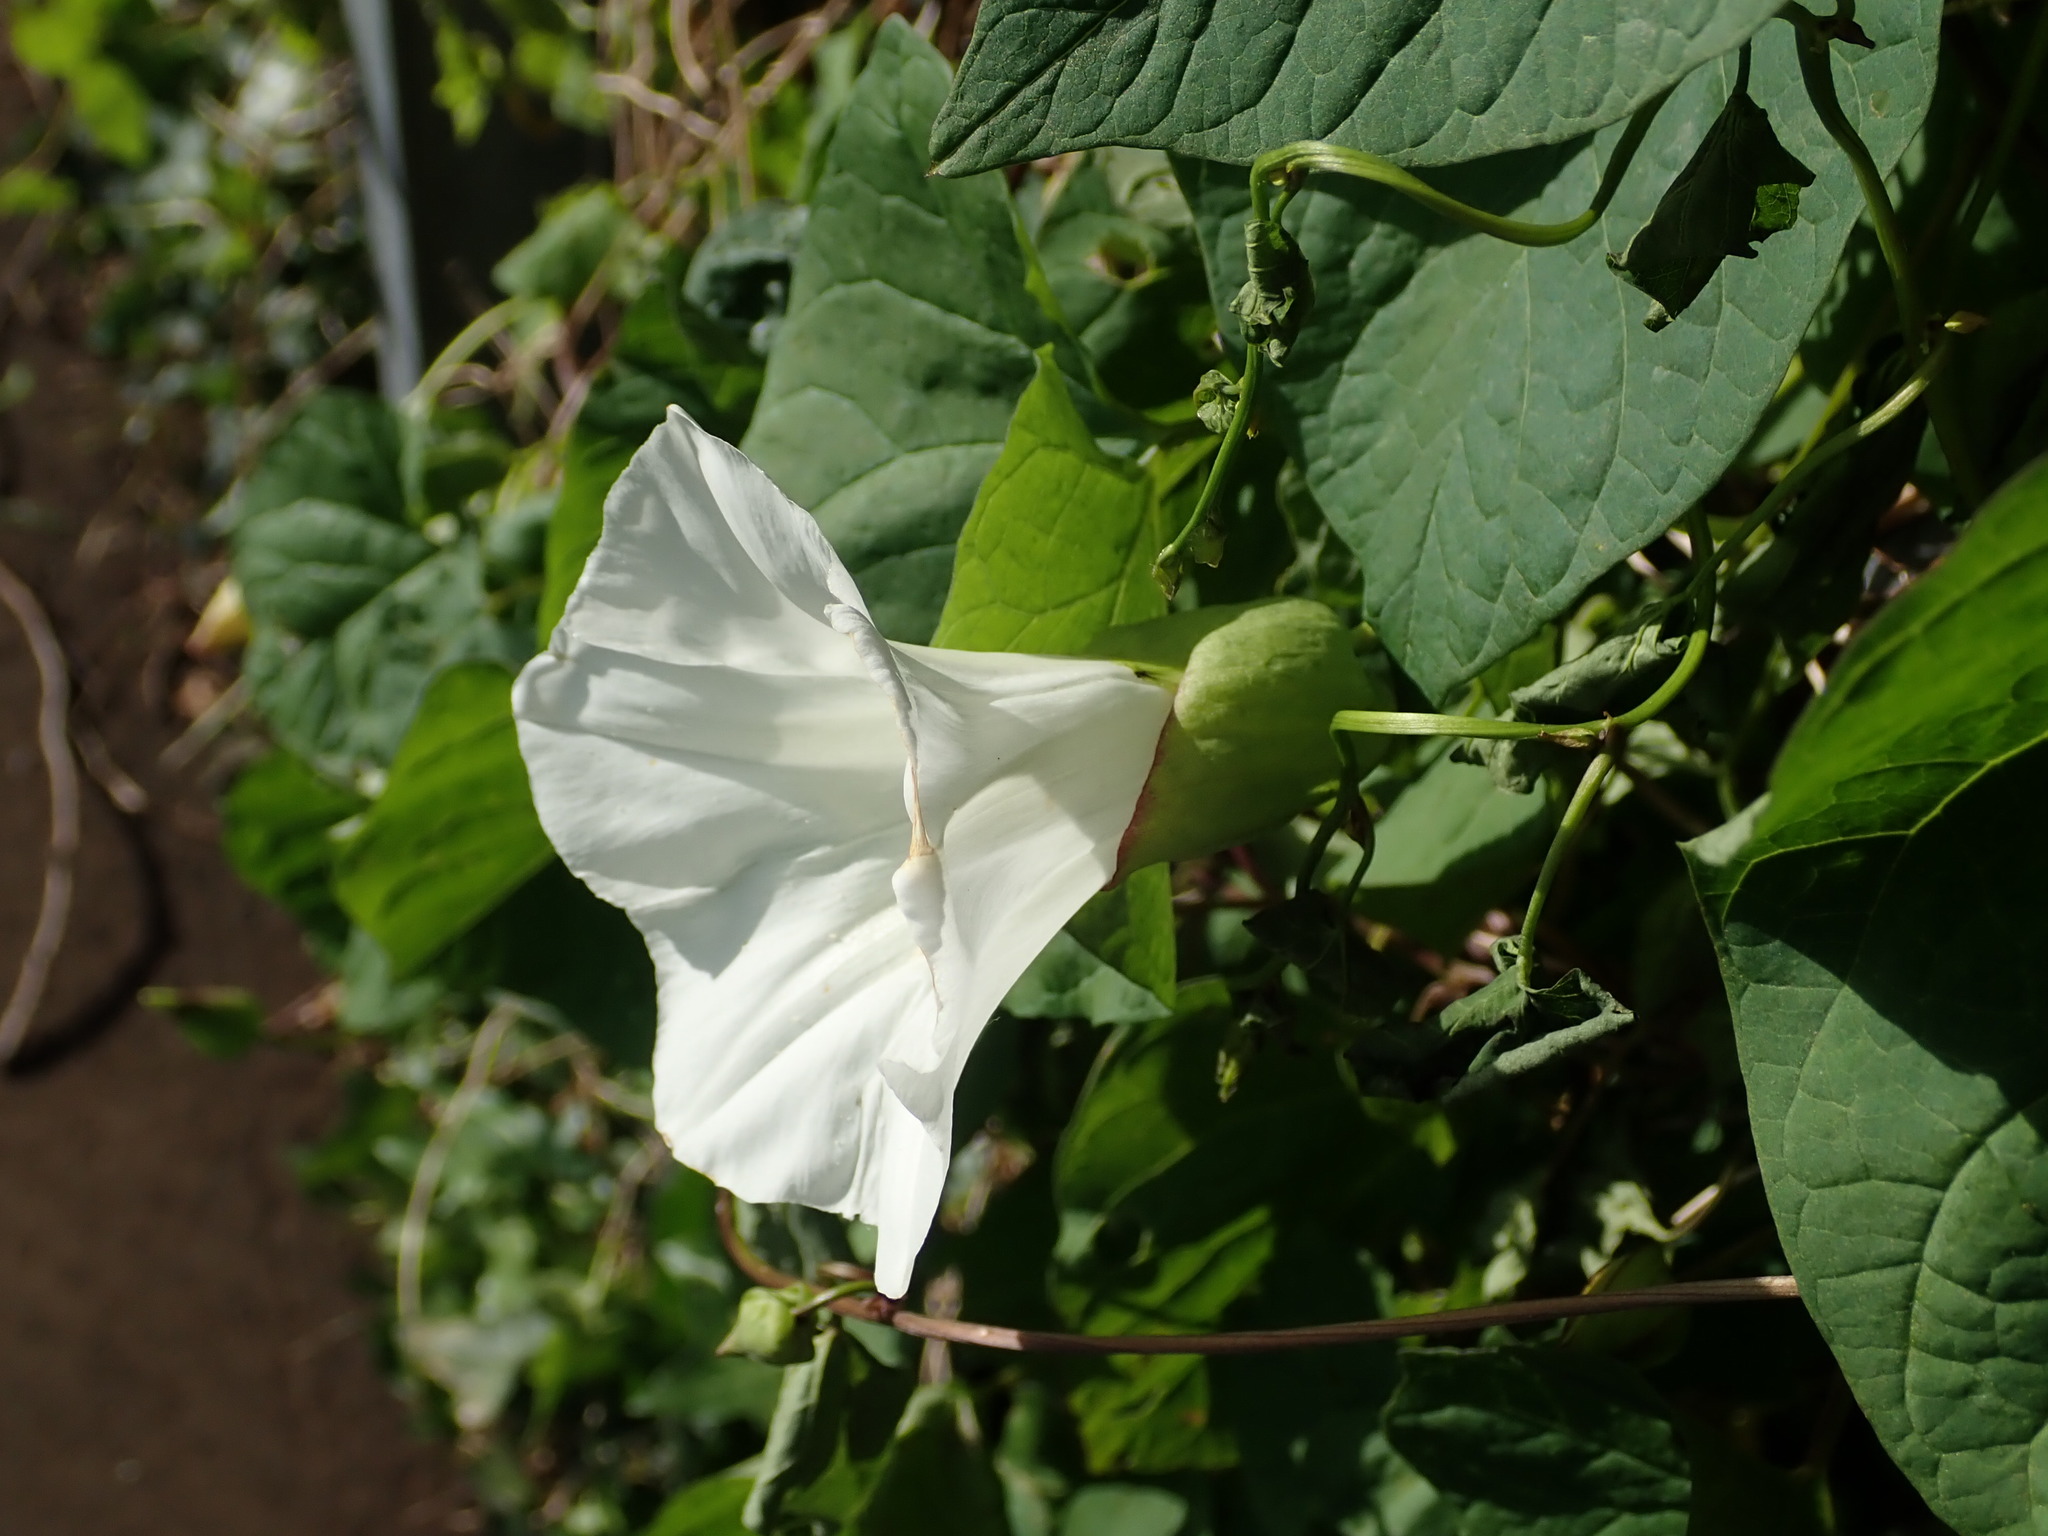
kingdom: Plantae
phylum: Tracheophyta
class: Magnoliopsida
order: Solanales
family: Convolvulaceae
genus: Calystegia
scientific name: Calystegia silvatica
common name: Large bindweed
